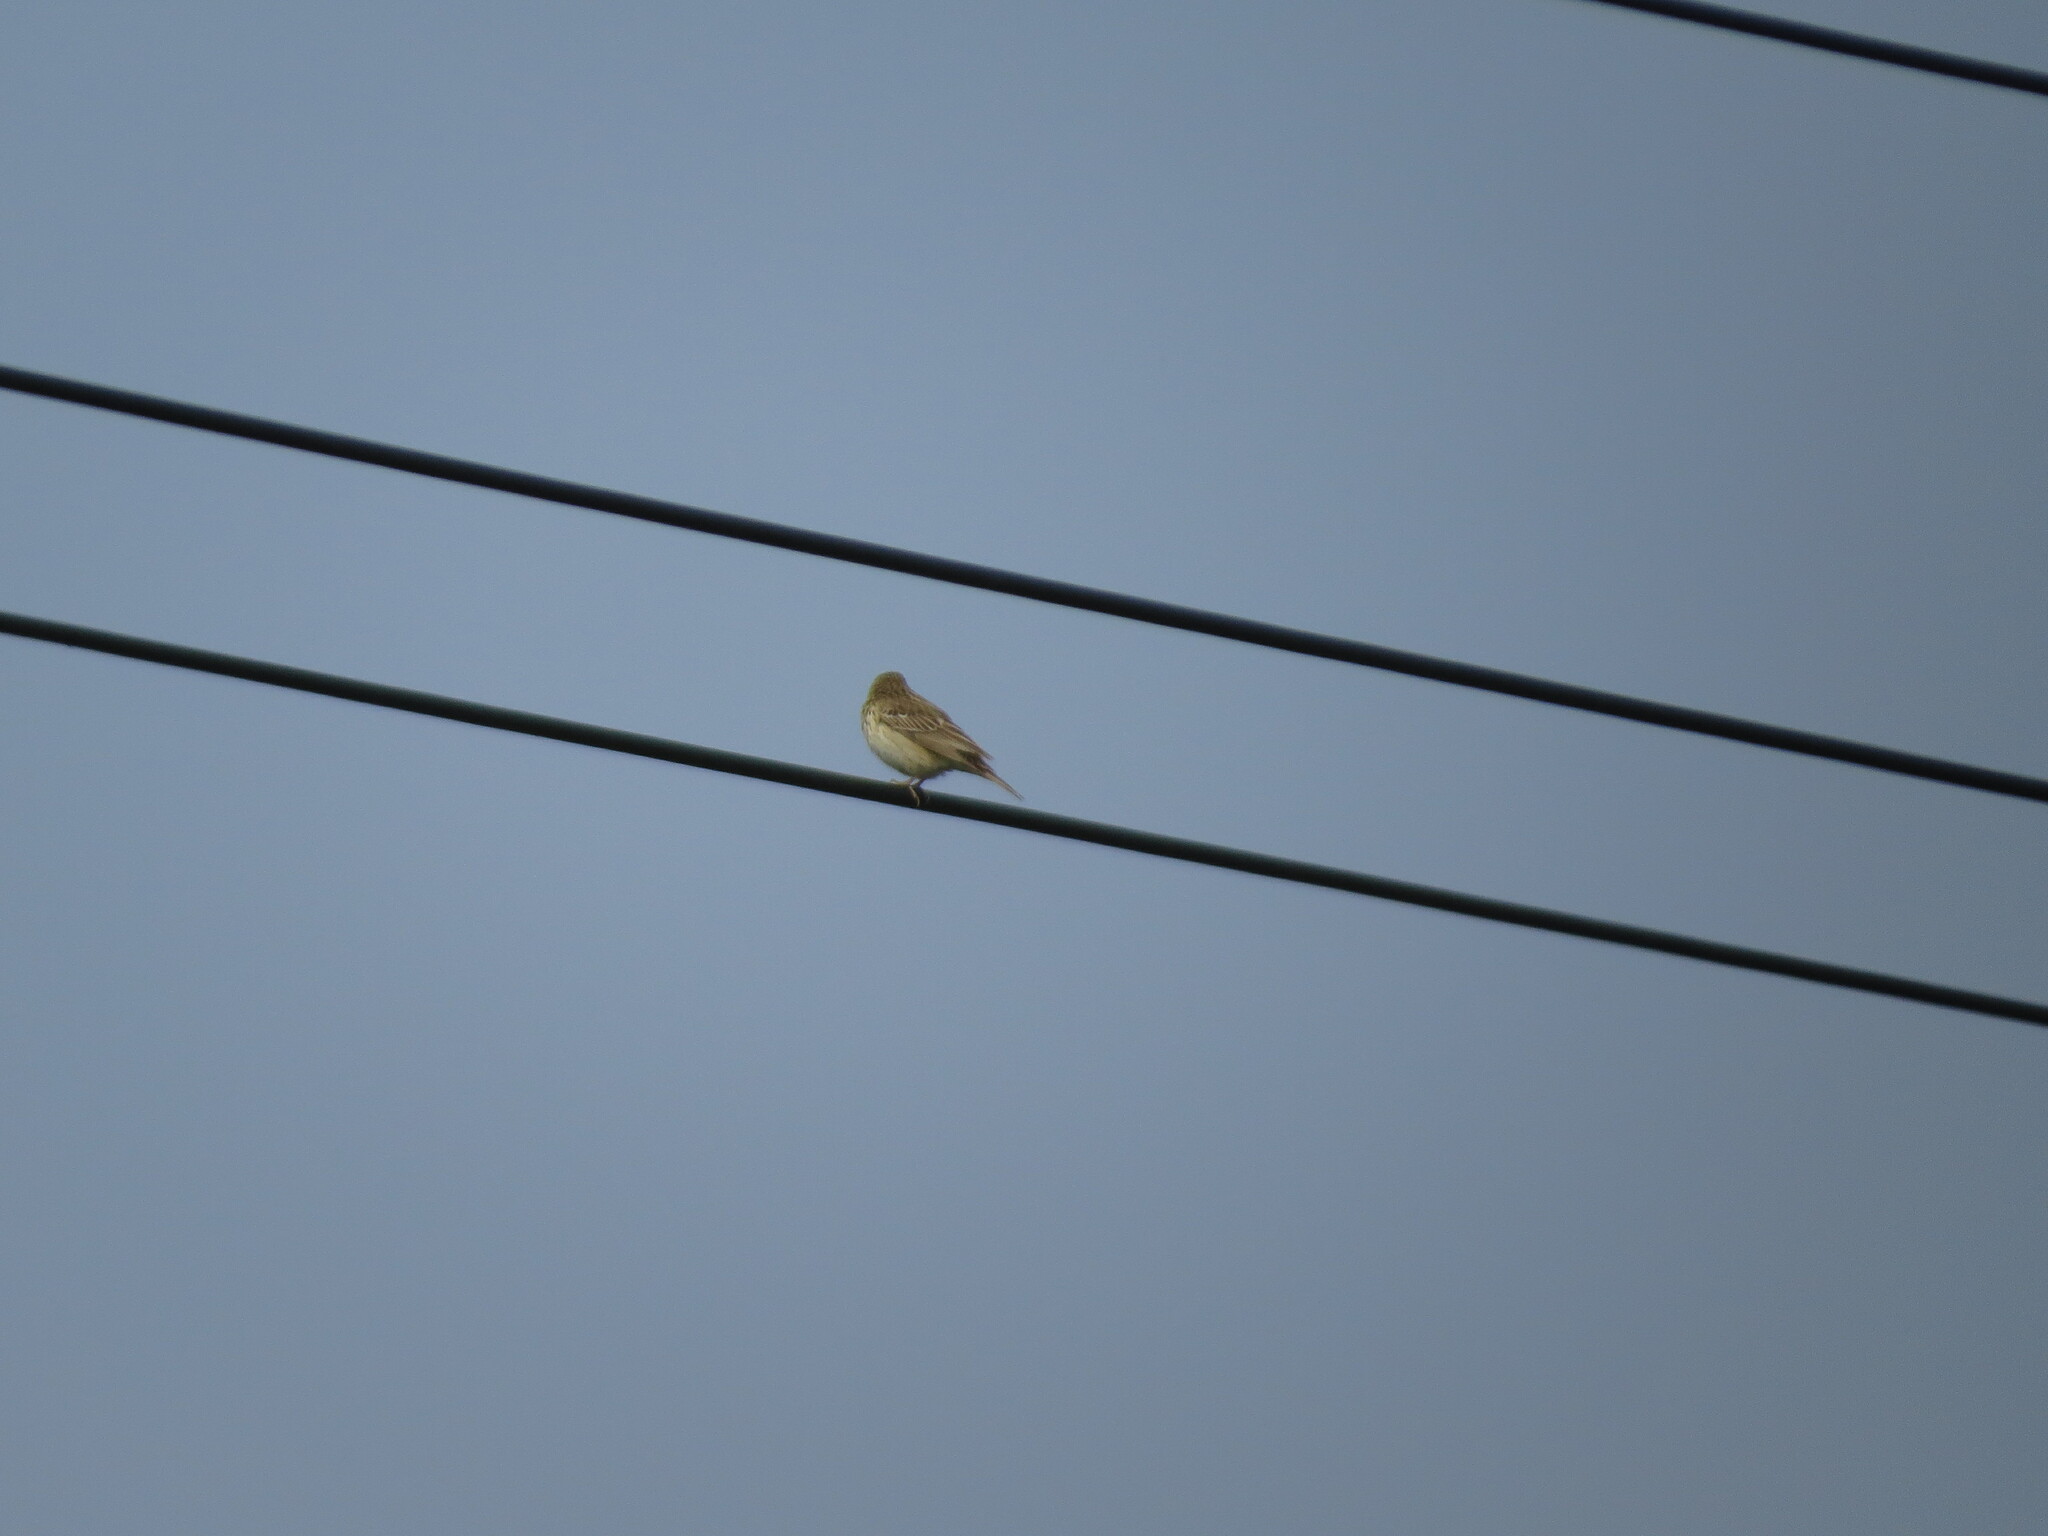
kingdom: Animalia
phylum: Chordata
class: Aves
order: Passeriformes
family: Motacillidae
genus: Anthus
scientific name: Anthus trivialis
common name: Tree pipit
